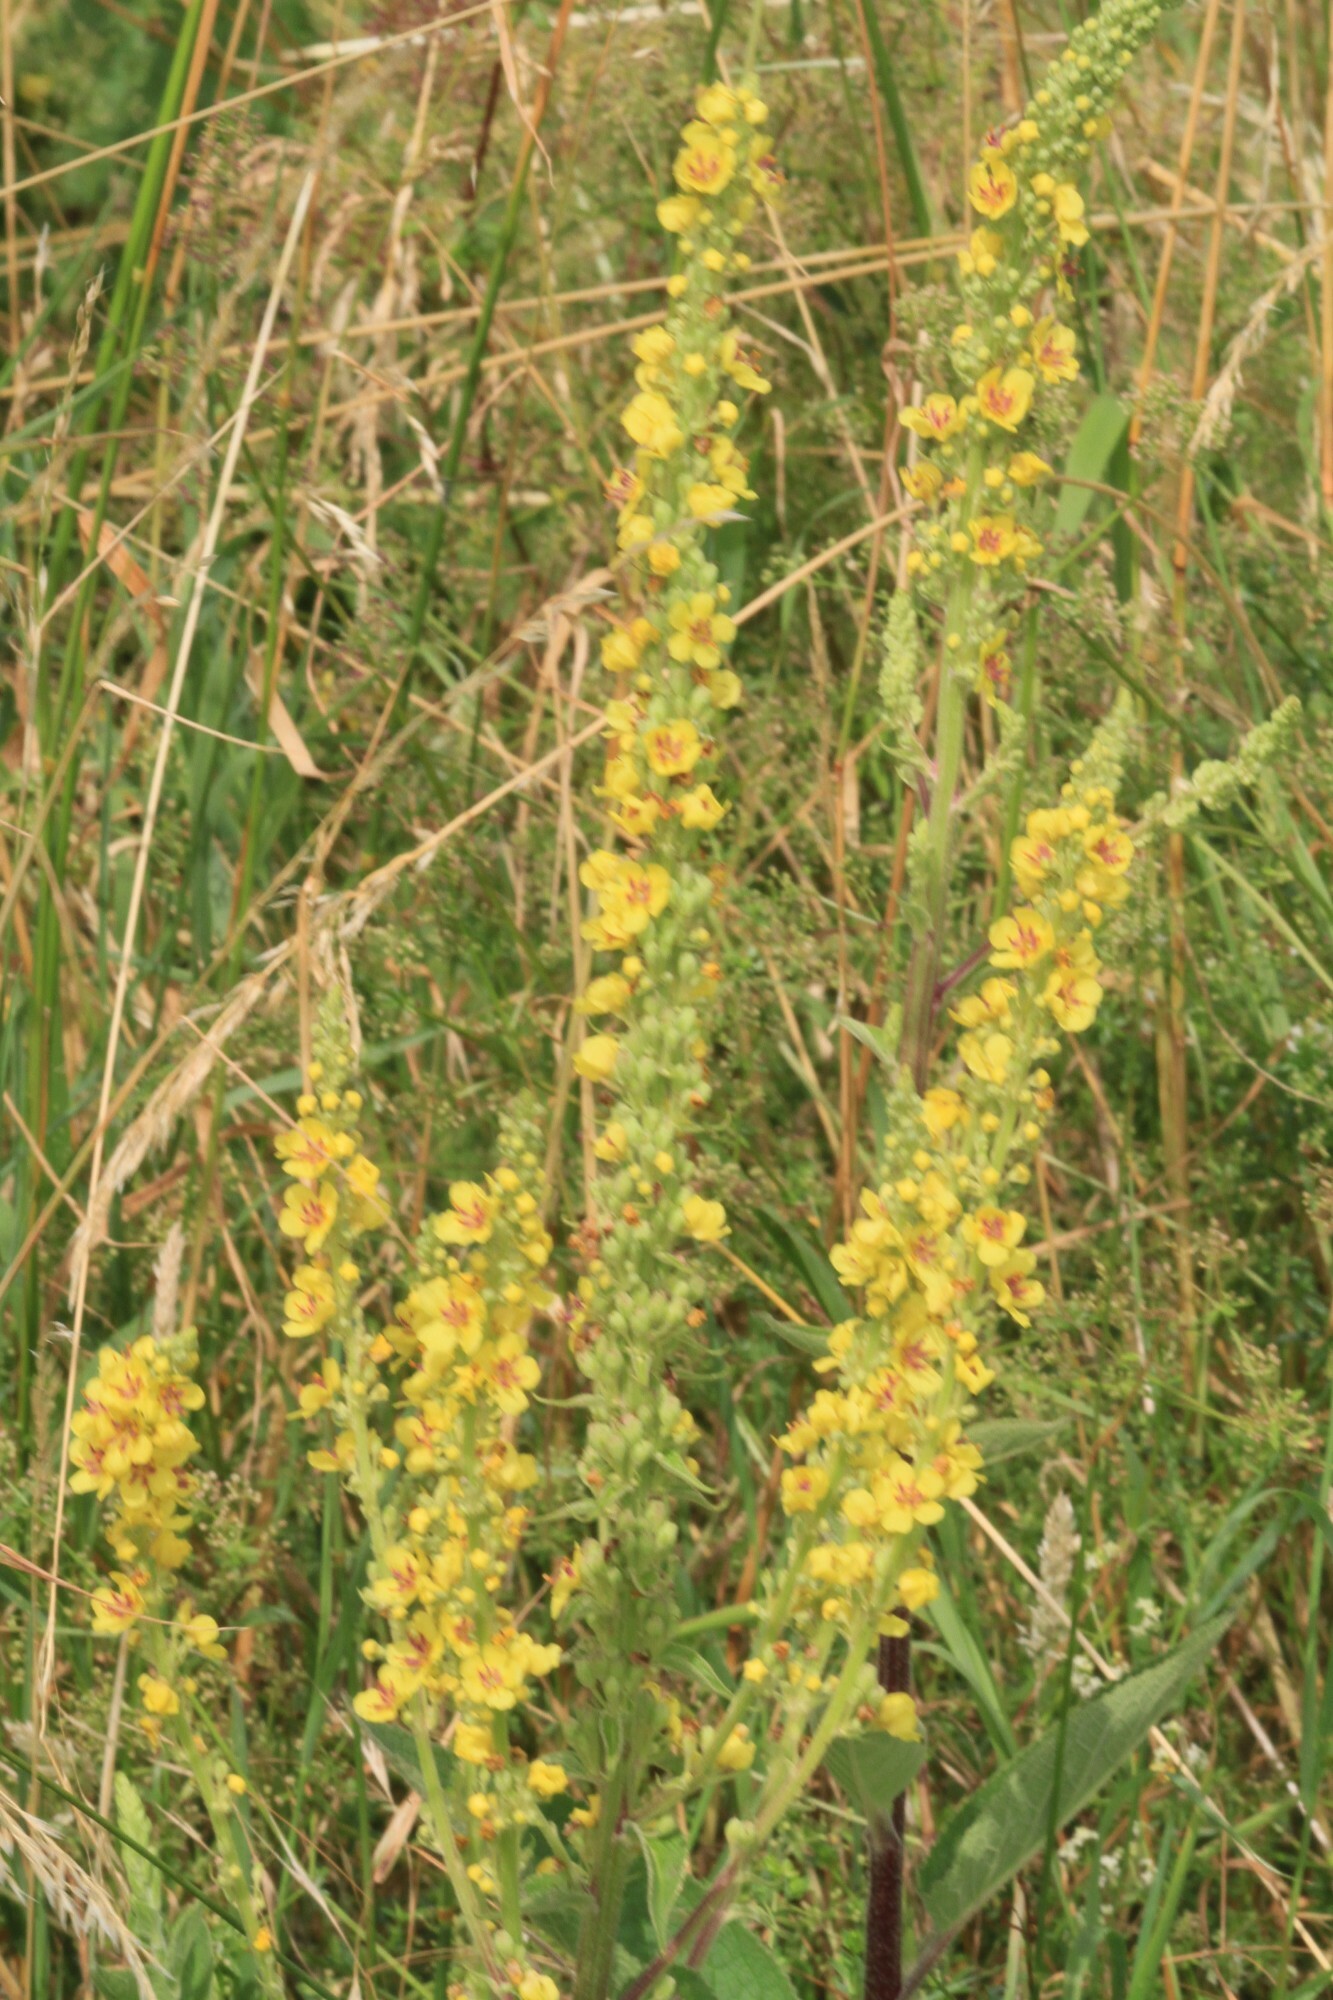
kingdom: Plantae
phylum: Tracheophyta
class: Magnoliopsida
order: Lamiales
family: Scrophulariaceae
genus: Verbascum
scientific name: Verbascum nigrum
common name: Dark mullein
